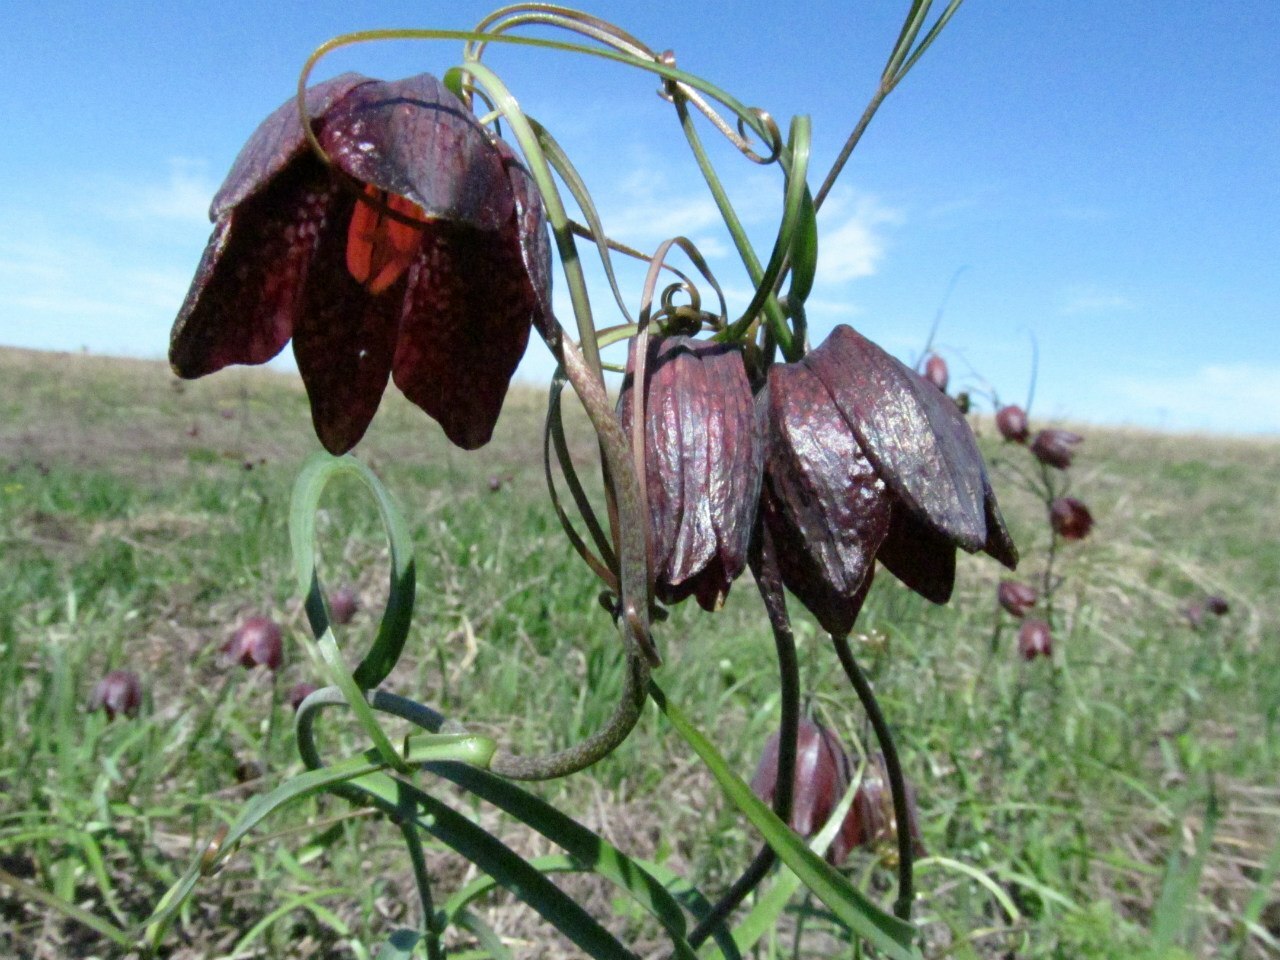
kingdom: Plantae
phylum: Tracheophyta
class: Liliopsida
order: Liliales
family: Liliaceae
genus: Fritillaria
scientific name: Fritillaria ruthenica
